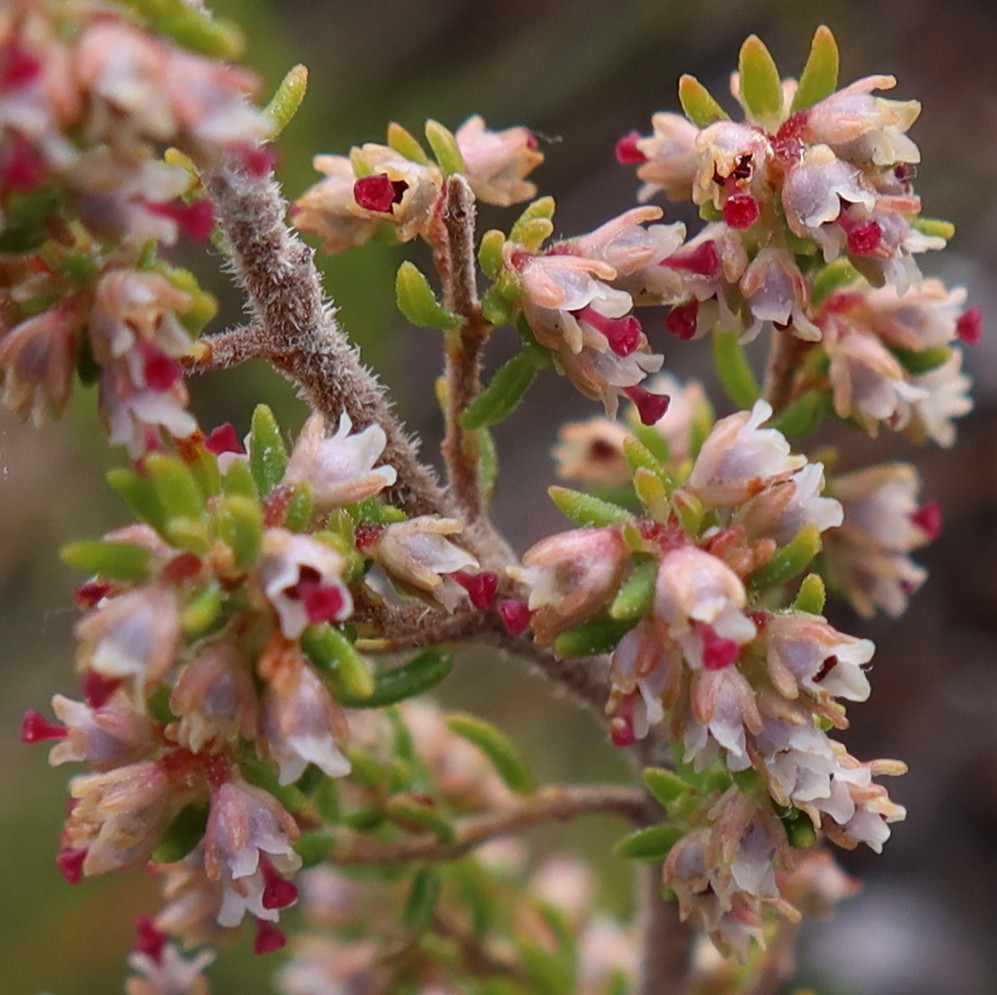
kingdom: Plantae
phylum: Tracheophyta
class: Magnoliopsida
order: Ericales
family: Ericaceae
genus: Erica
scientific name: Erica hispidula
